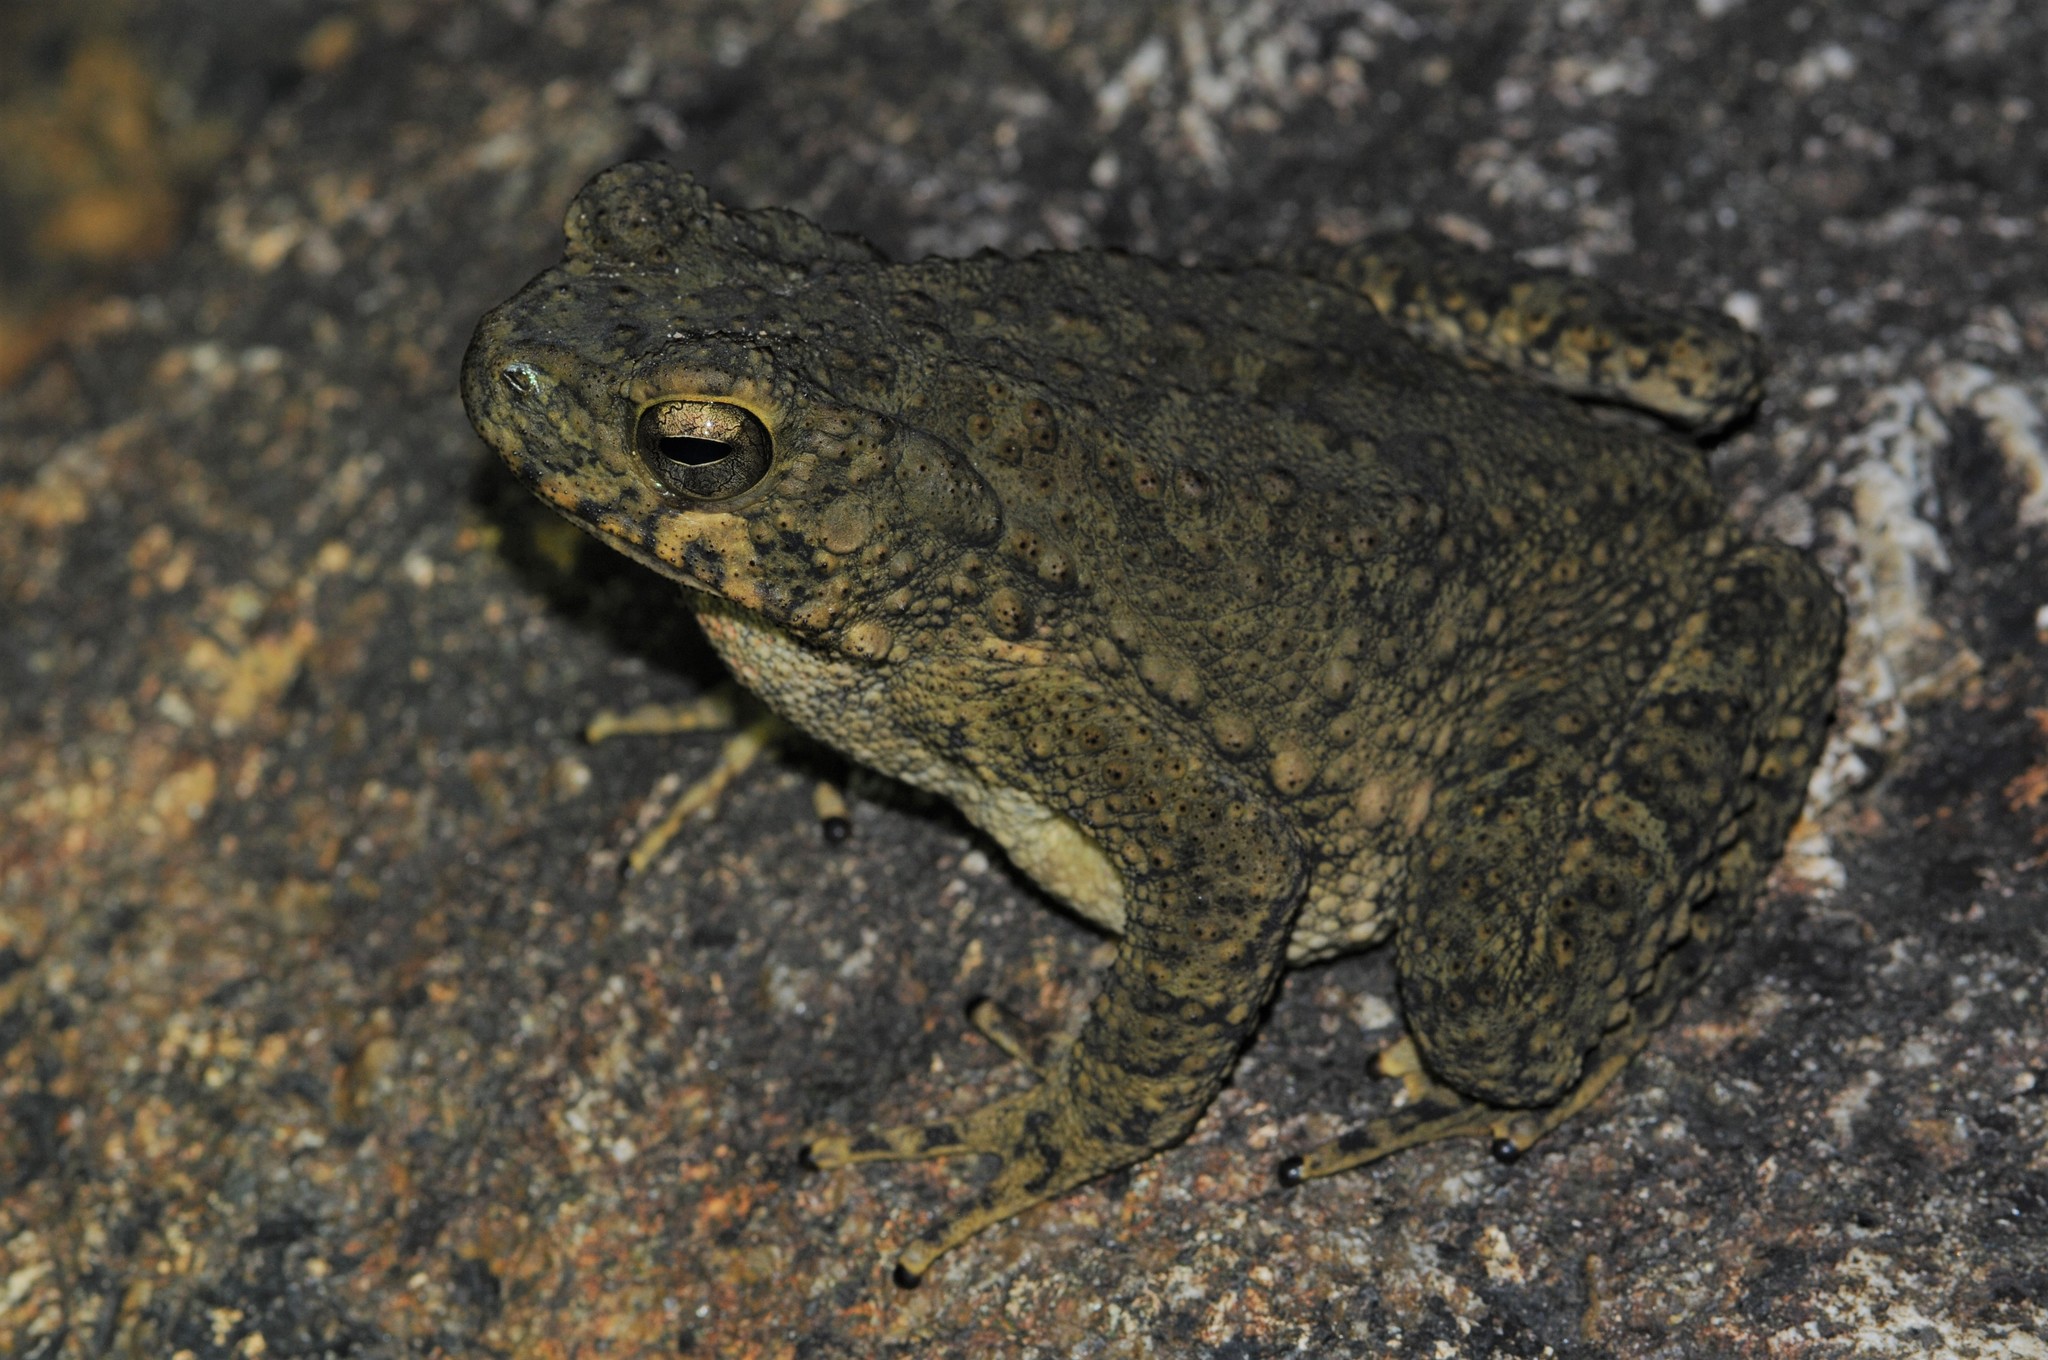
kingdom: Animalia
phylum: Chordata
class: Amphibia
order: Anura
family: Bufonidae
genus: Phrynoidis
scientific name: Phrynoidis asper
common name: Asian giant toad
